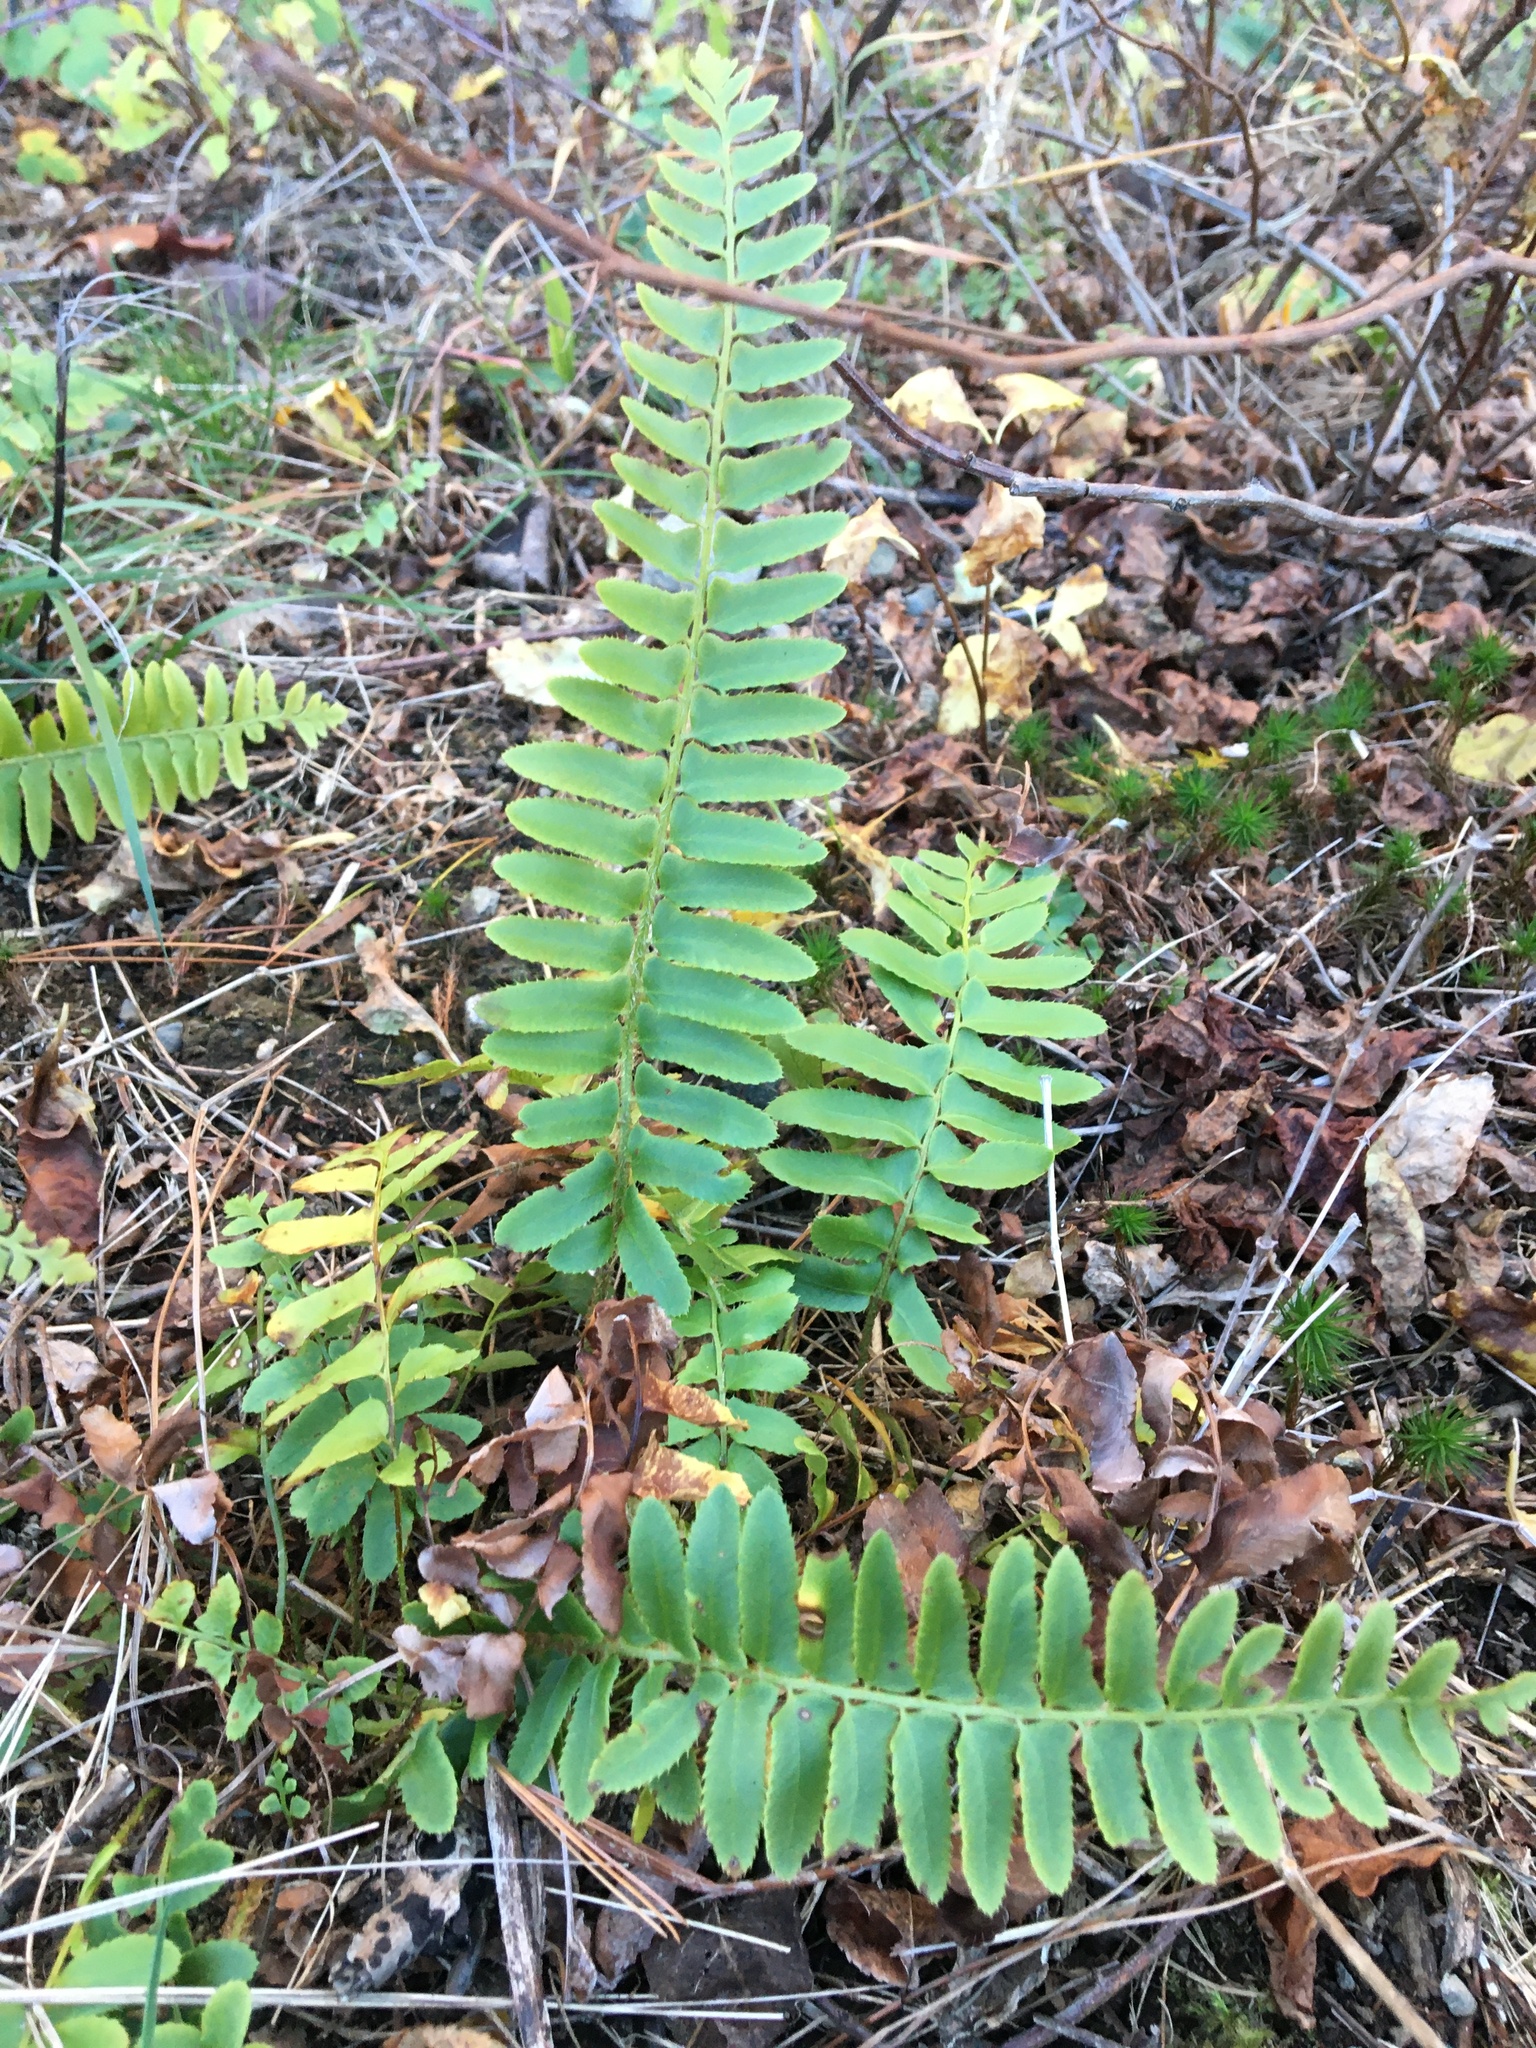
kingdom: Plantae
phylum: Tracheophyta
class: Polypodiopsida
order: Polypodiales
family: Dryopteridaceae
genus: Polystichum
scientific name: Polystichum acrostichoides
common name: Christmas fern
